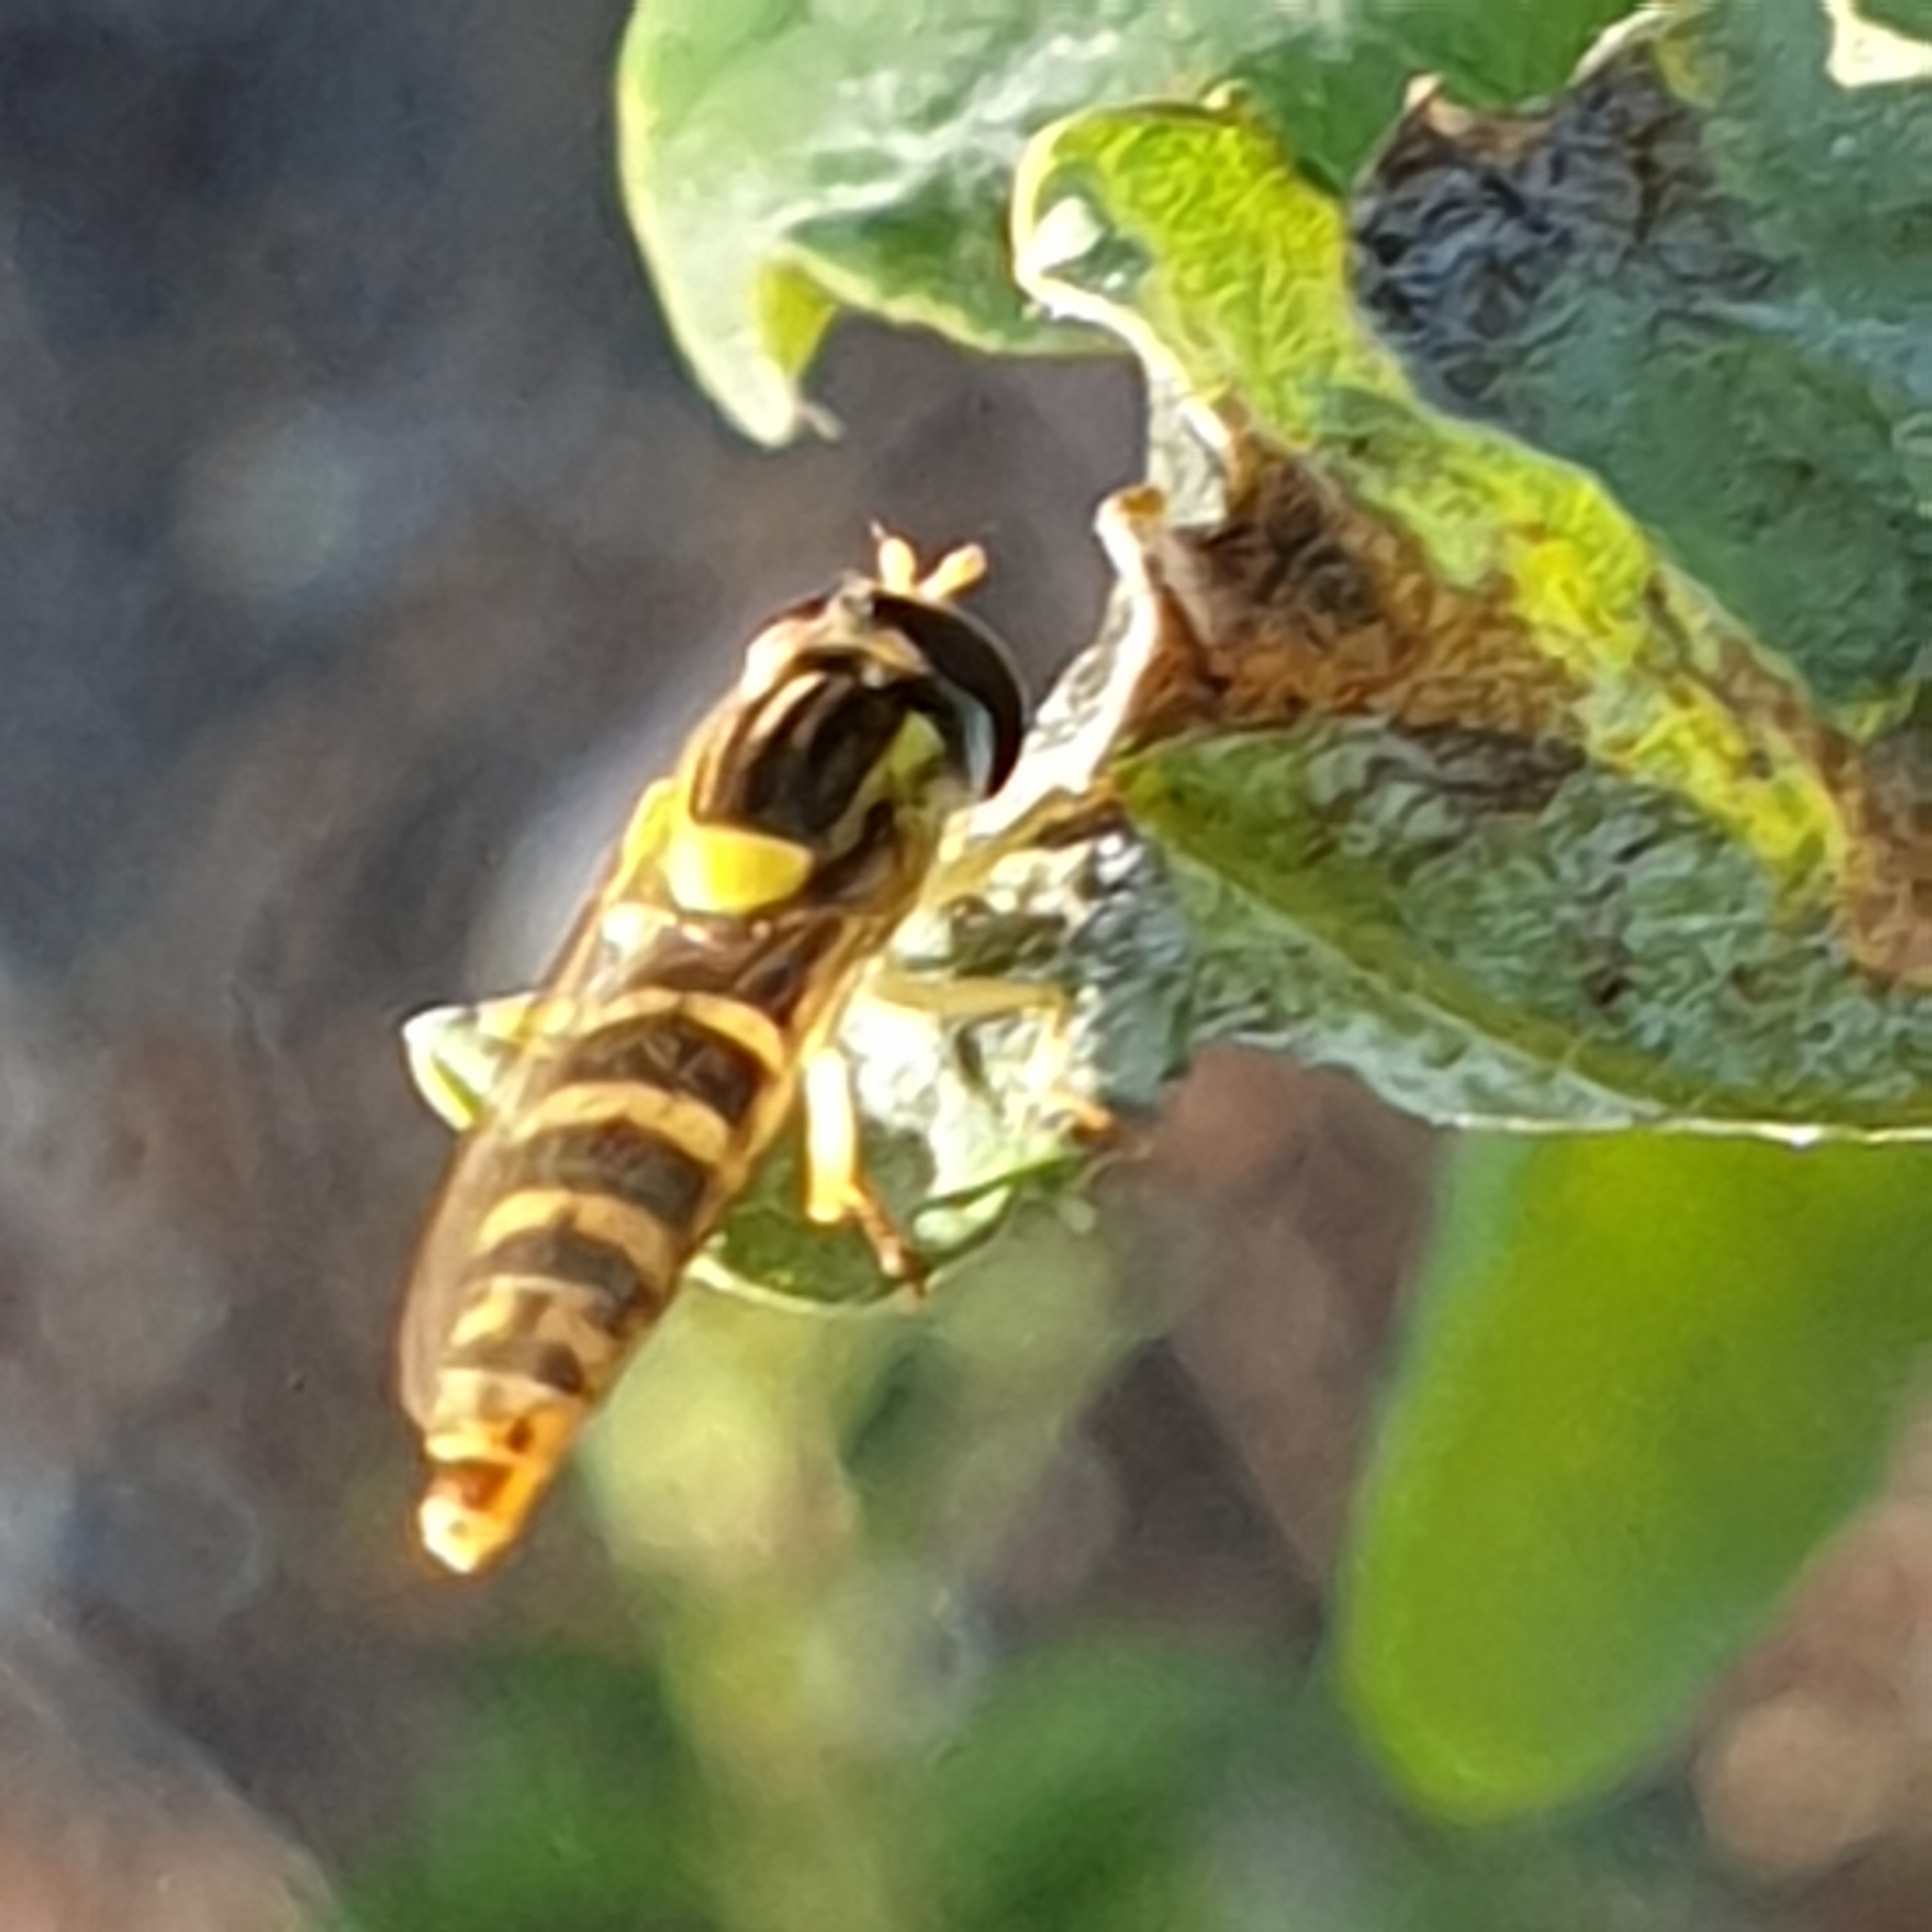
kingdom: Animalia
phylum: Arthropoda
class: Insecta
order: Diptera
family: Syrphidae
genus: Sphaerophoria
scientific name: Sphaerophoria
